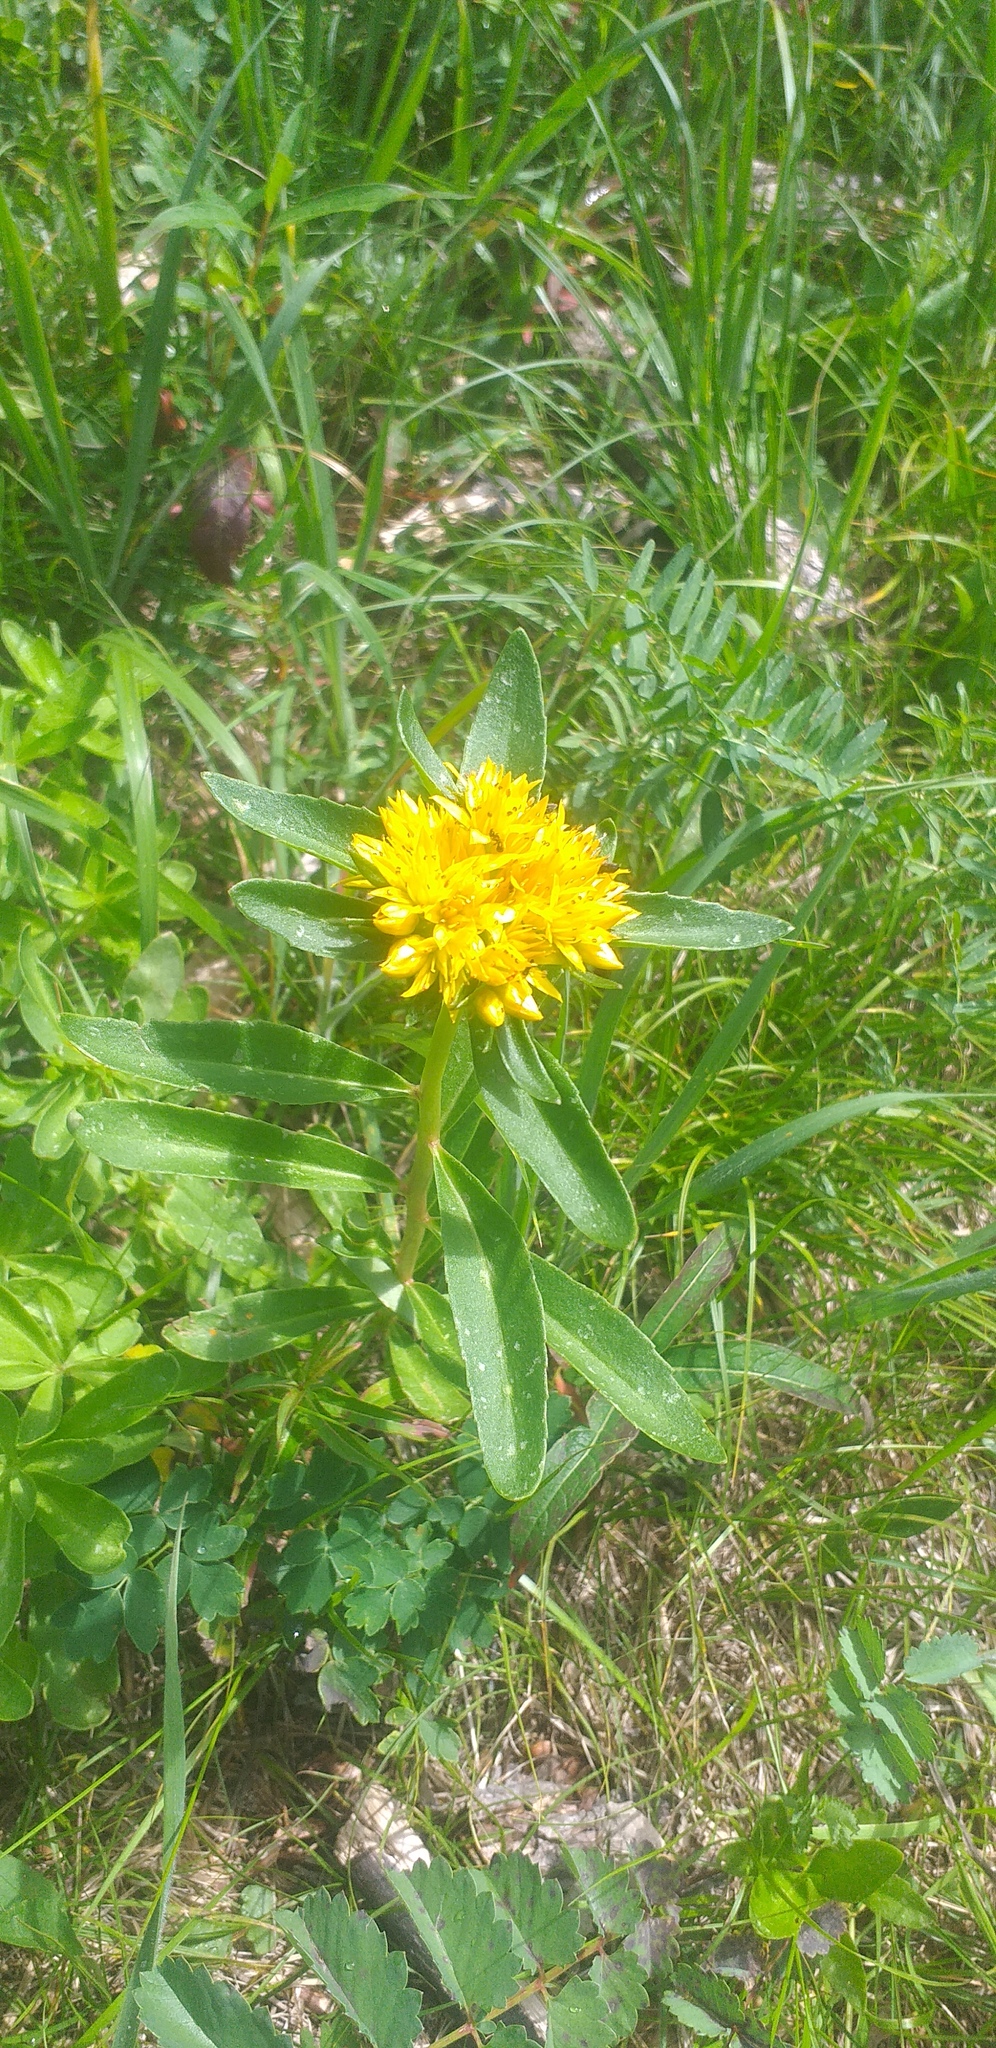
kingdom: Plantae
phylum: Tracheophyta
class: Magnoliopsida
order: Saxifragales
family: Crassulaceae
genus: Phedimus
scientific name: Phedimus aizoon
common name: Orpin aizoon
